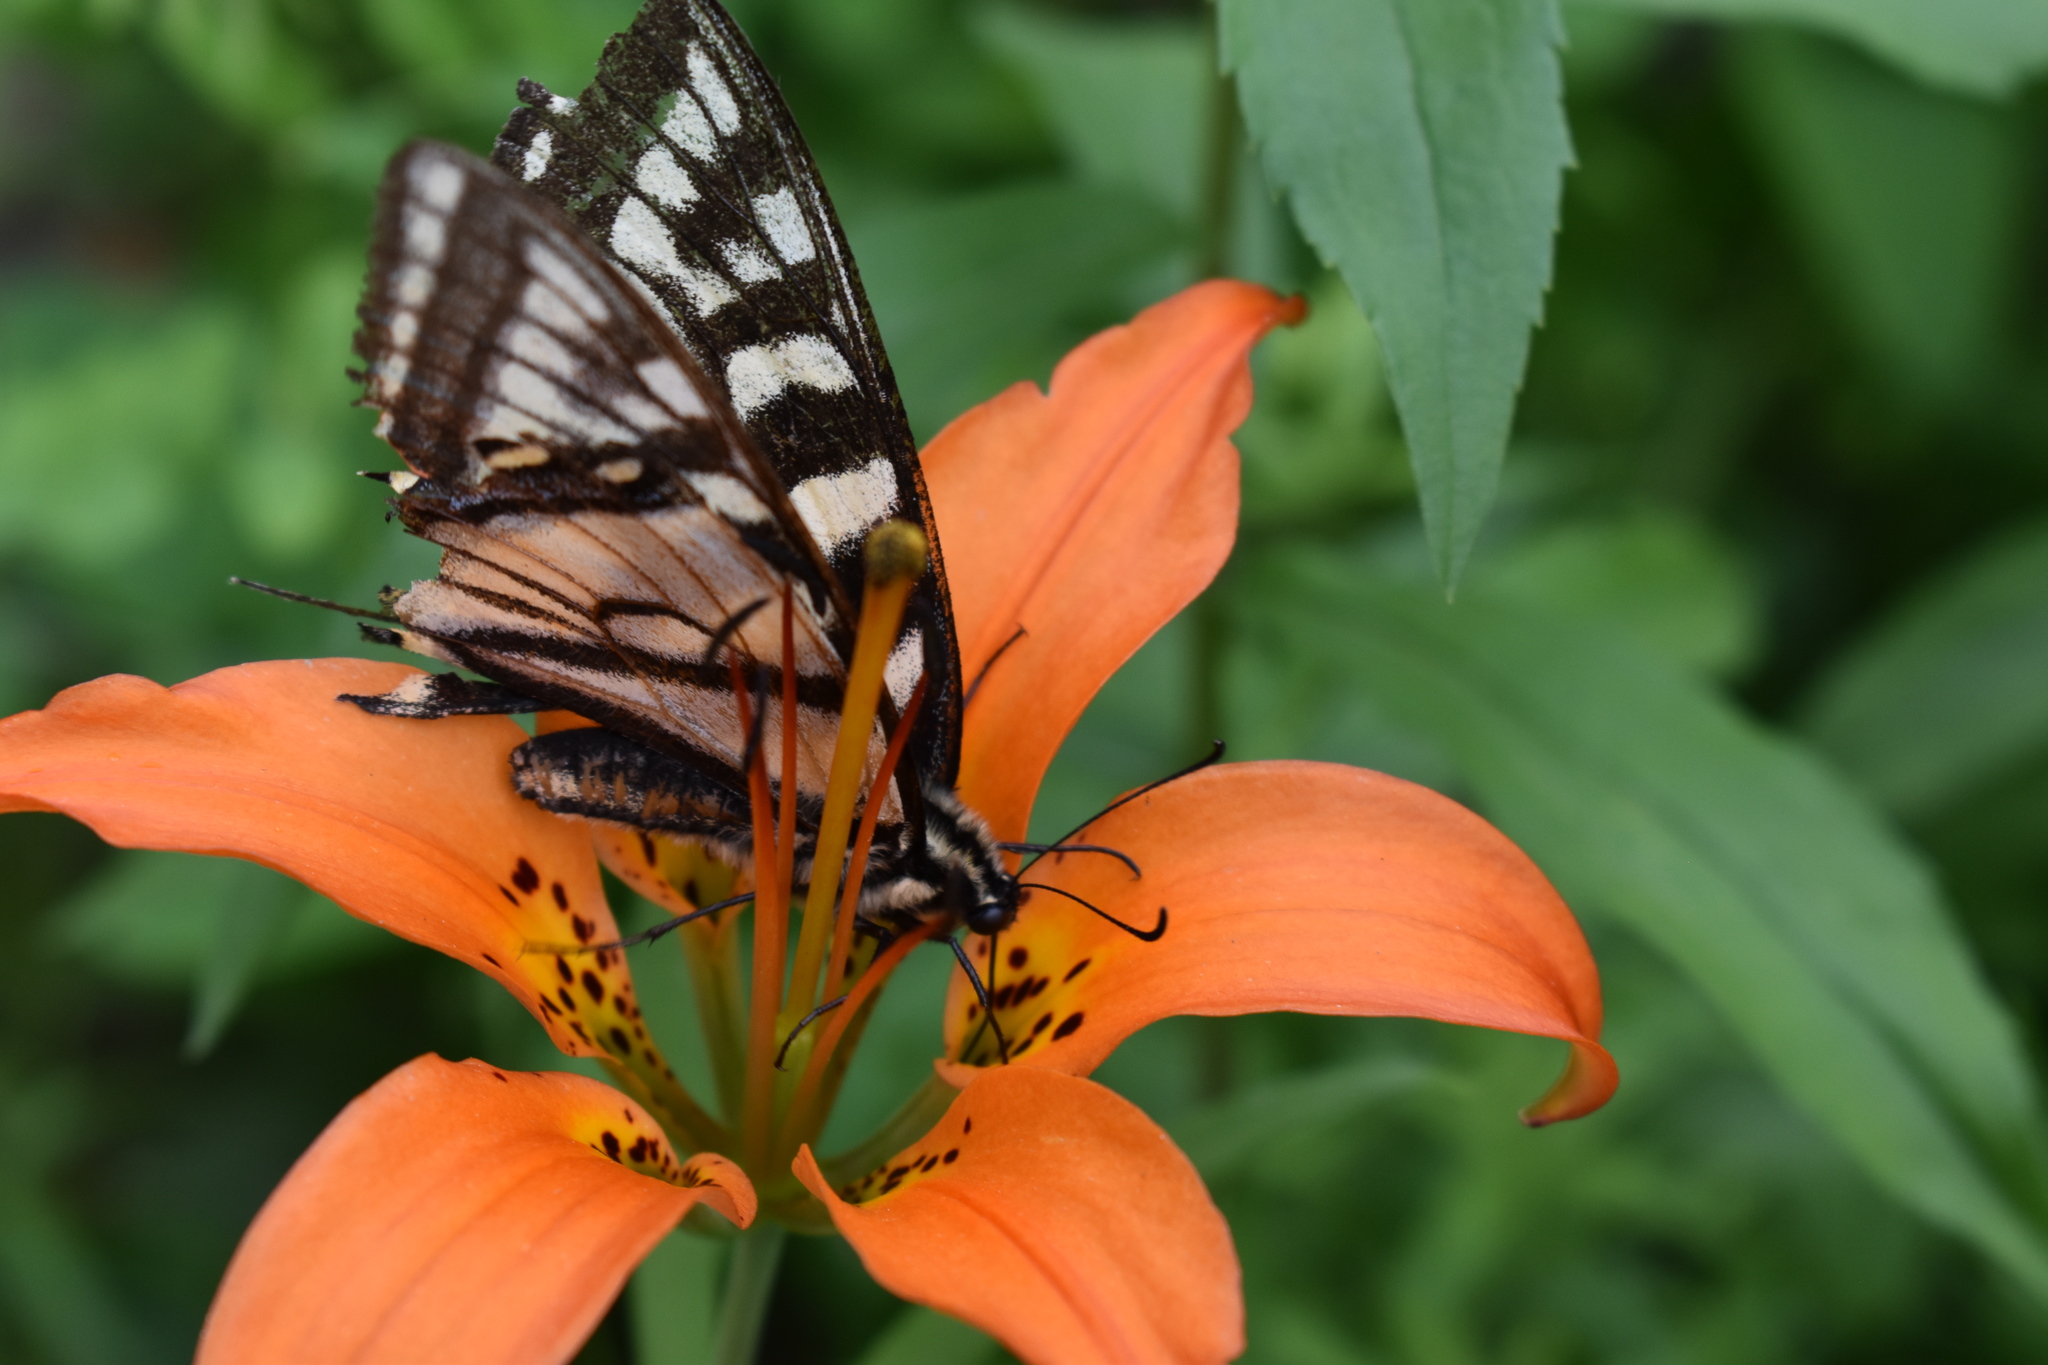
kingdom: Animalia
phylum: Arthropoda
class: Insecta
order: Lepidoptera
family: Papilionidae
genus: Papilio
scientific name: Papilio canadensis
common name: Canadian tiger swallowtail
